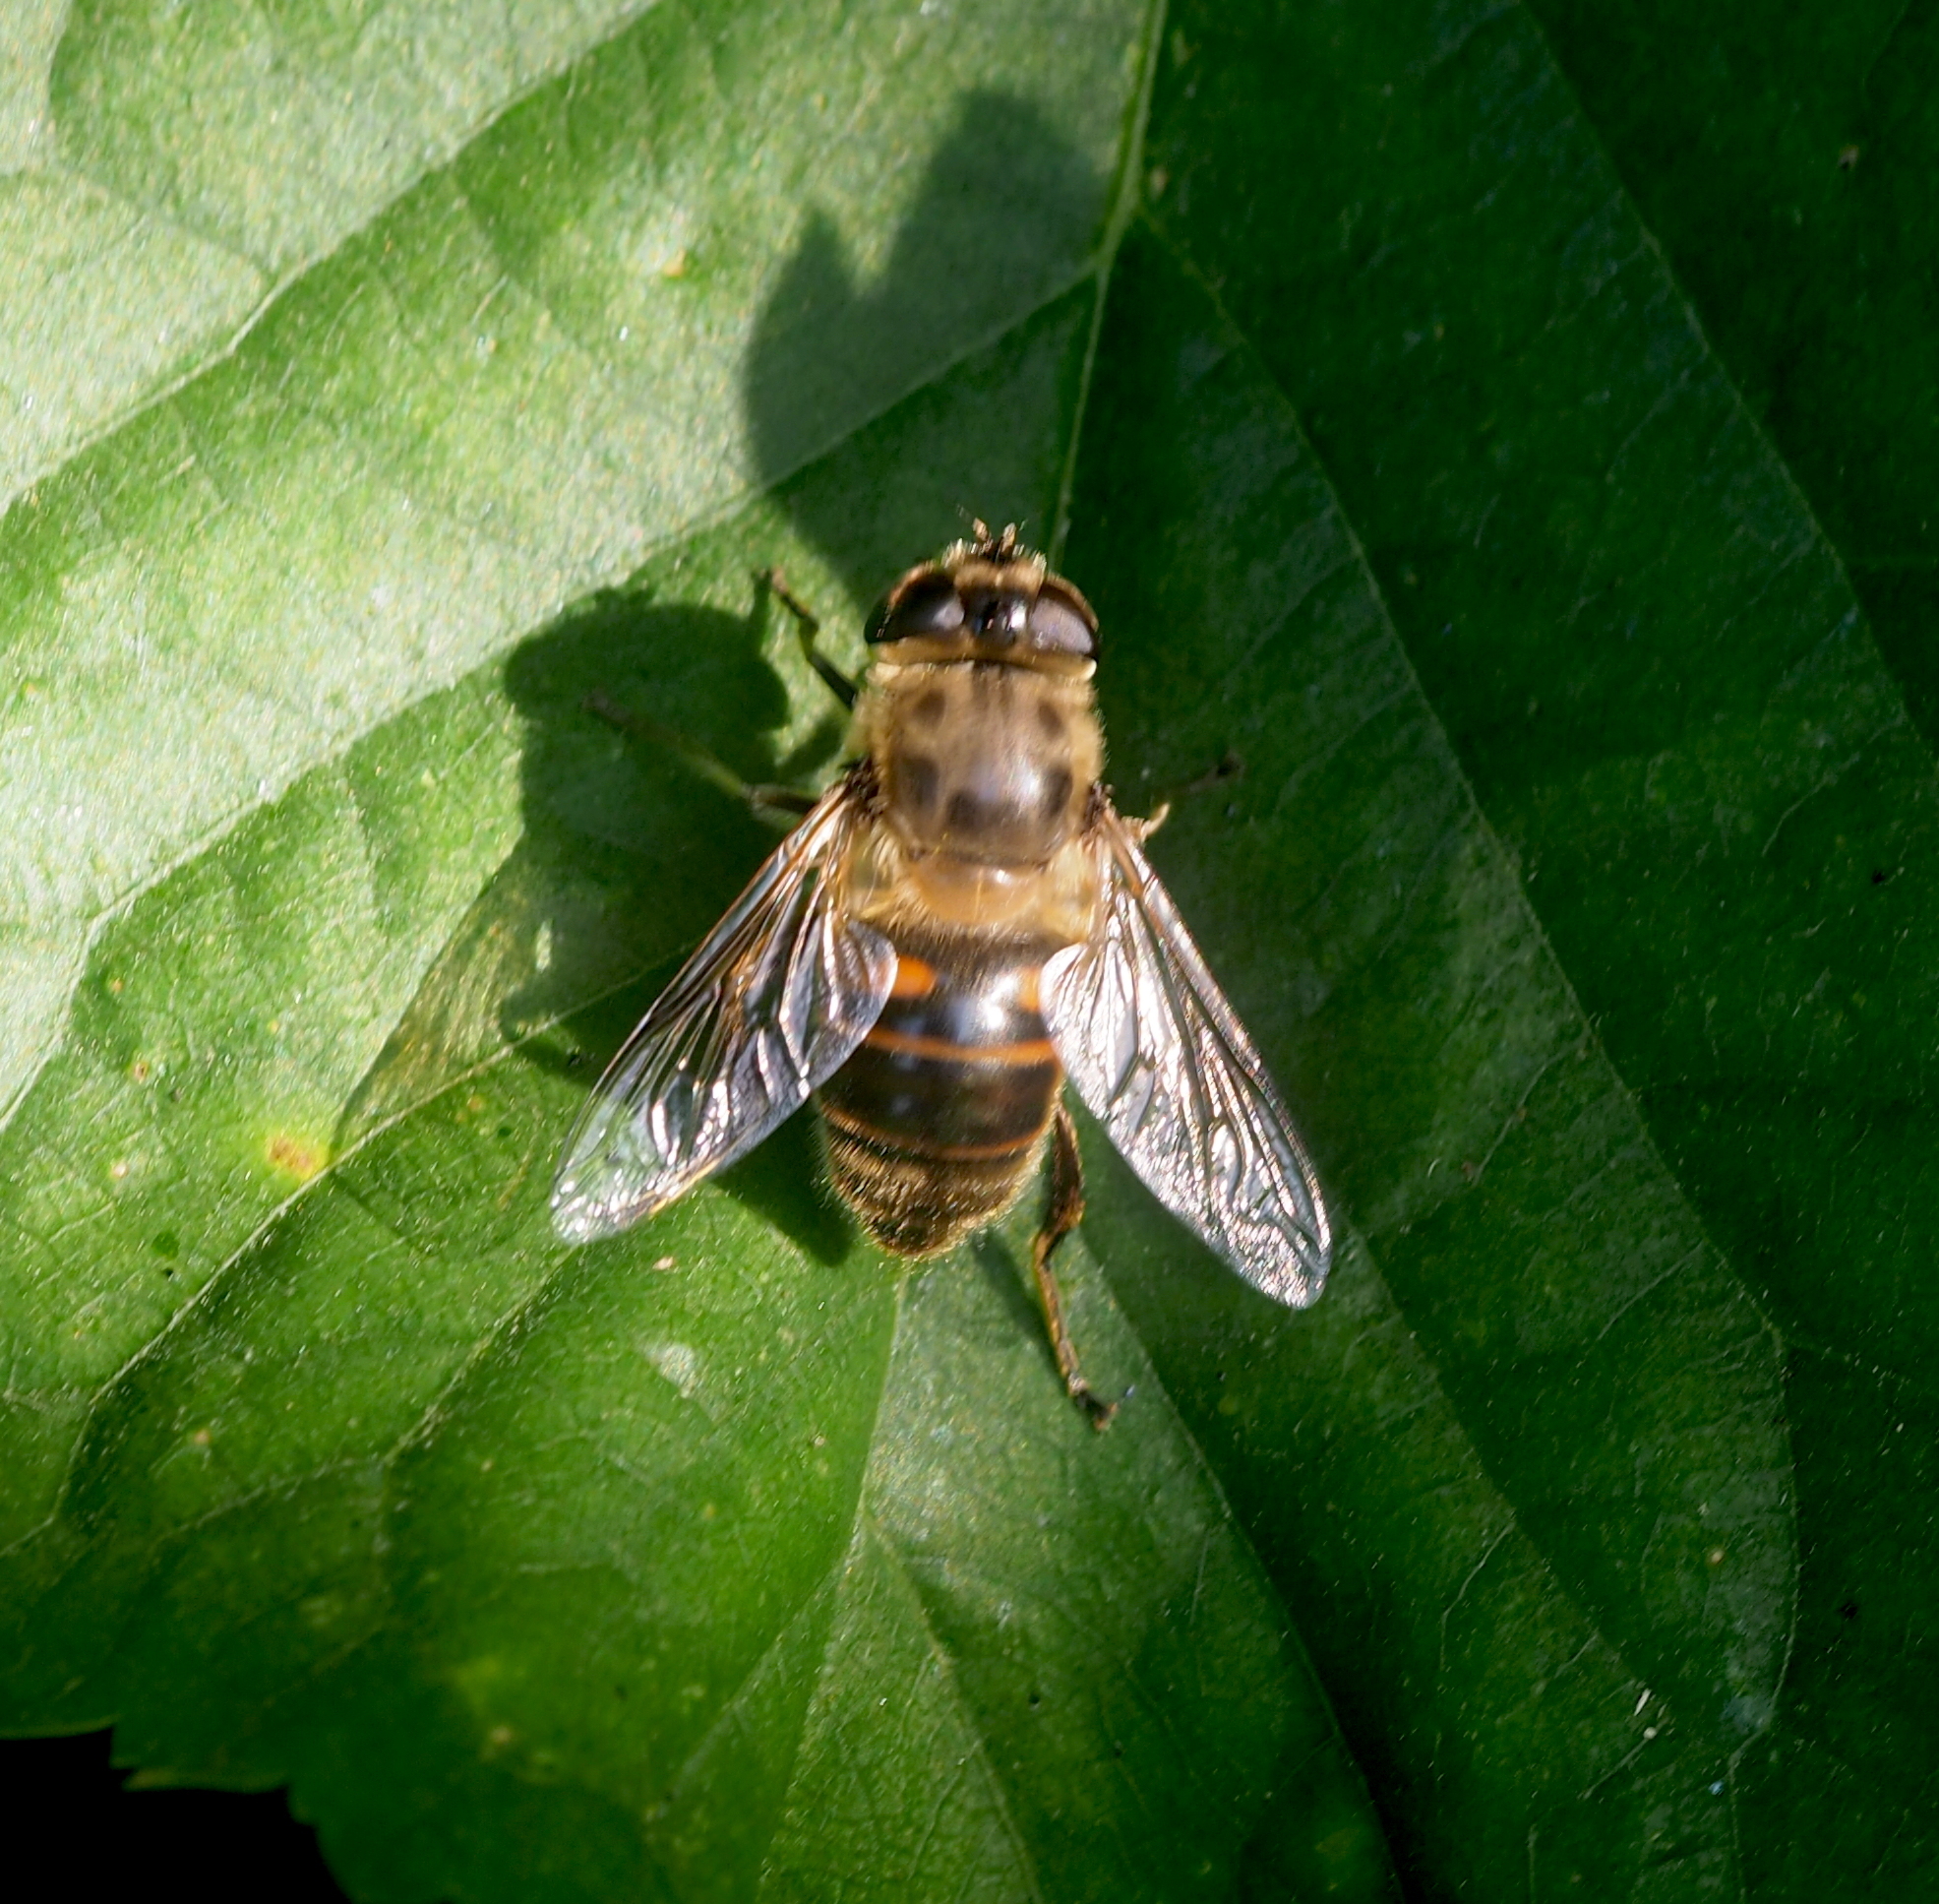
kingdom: Animalia
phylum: Arthropoda
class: Insecta
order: Diptera
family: Syrphidae
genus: Eristalis
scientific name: Eristalis tenax
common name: Drone fly
